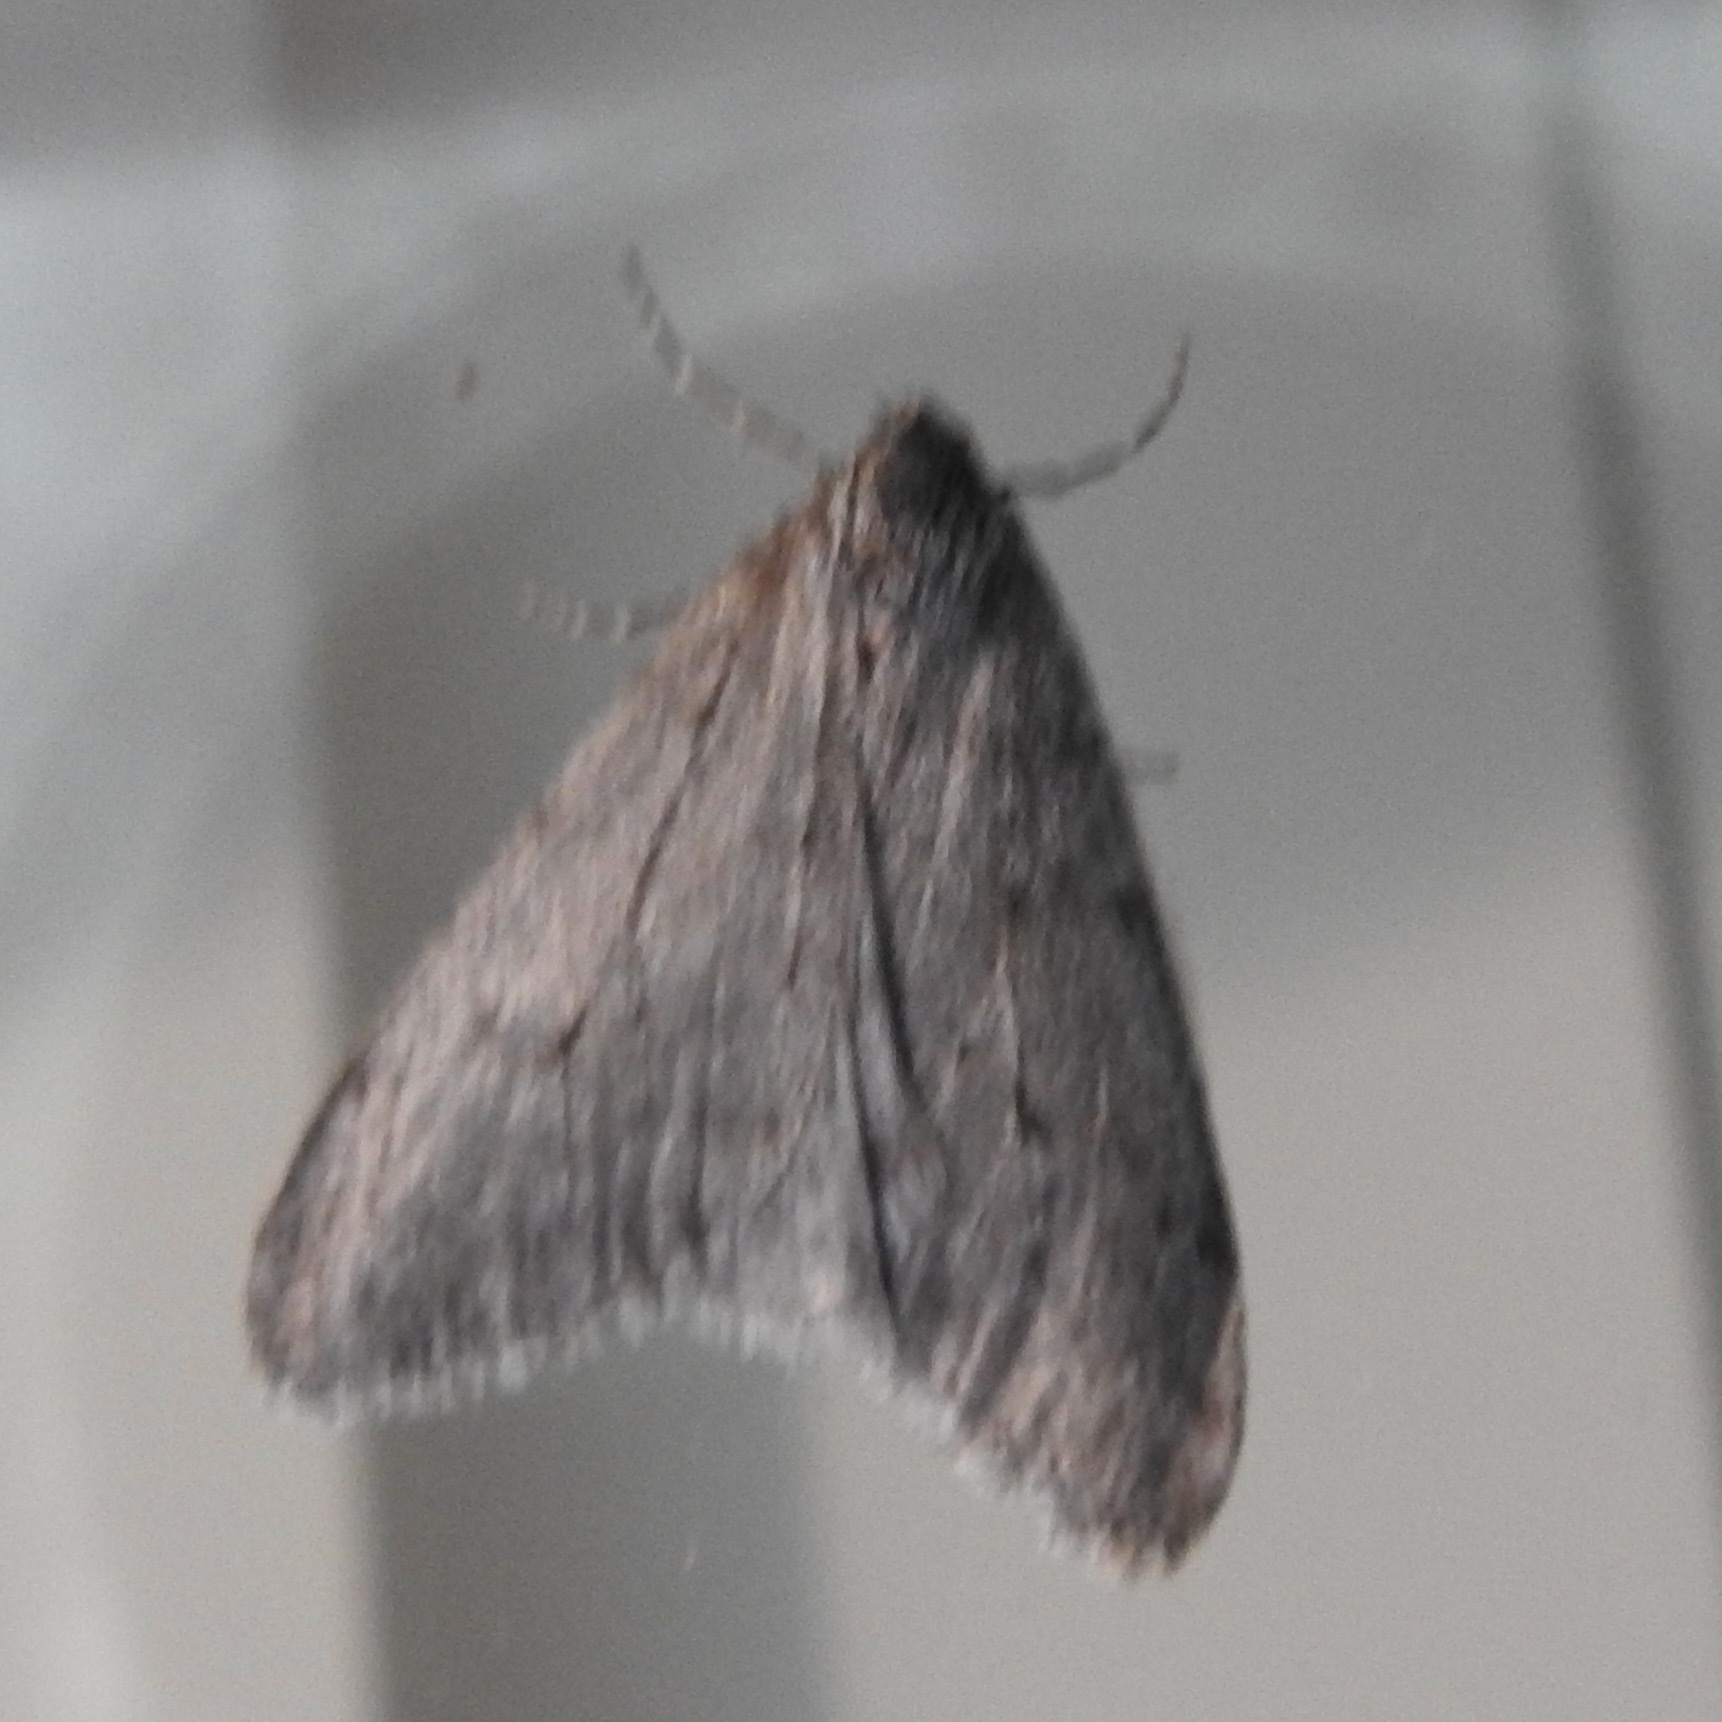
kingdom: Animalia
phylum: Arthropoda
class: Insecta
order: Lepidoptera
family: Geometridae
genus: Phigalia
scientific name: Phigalia plumogeraria
